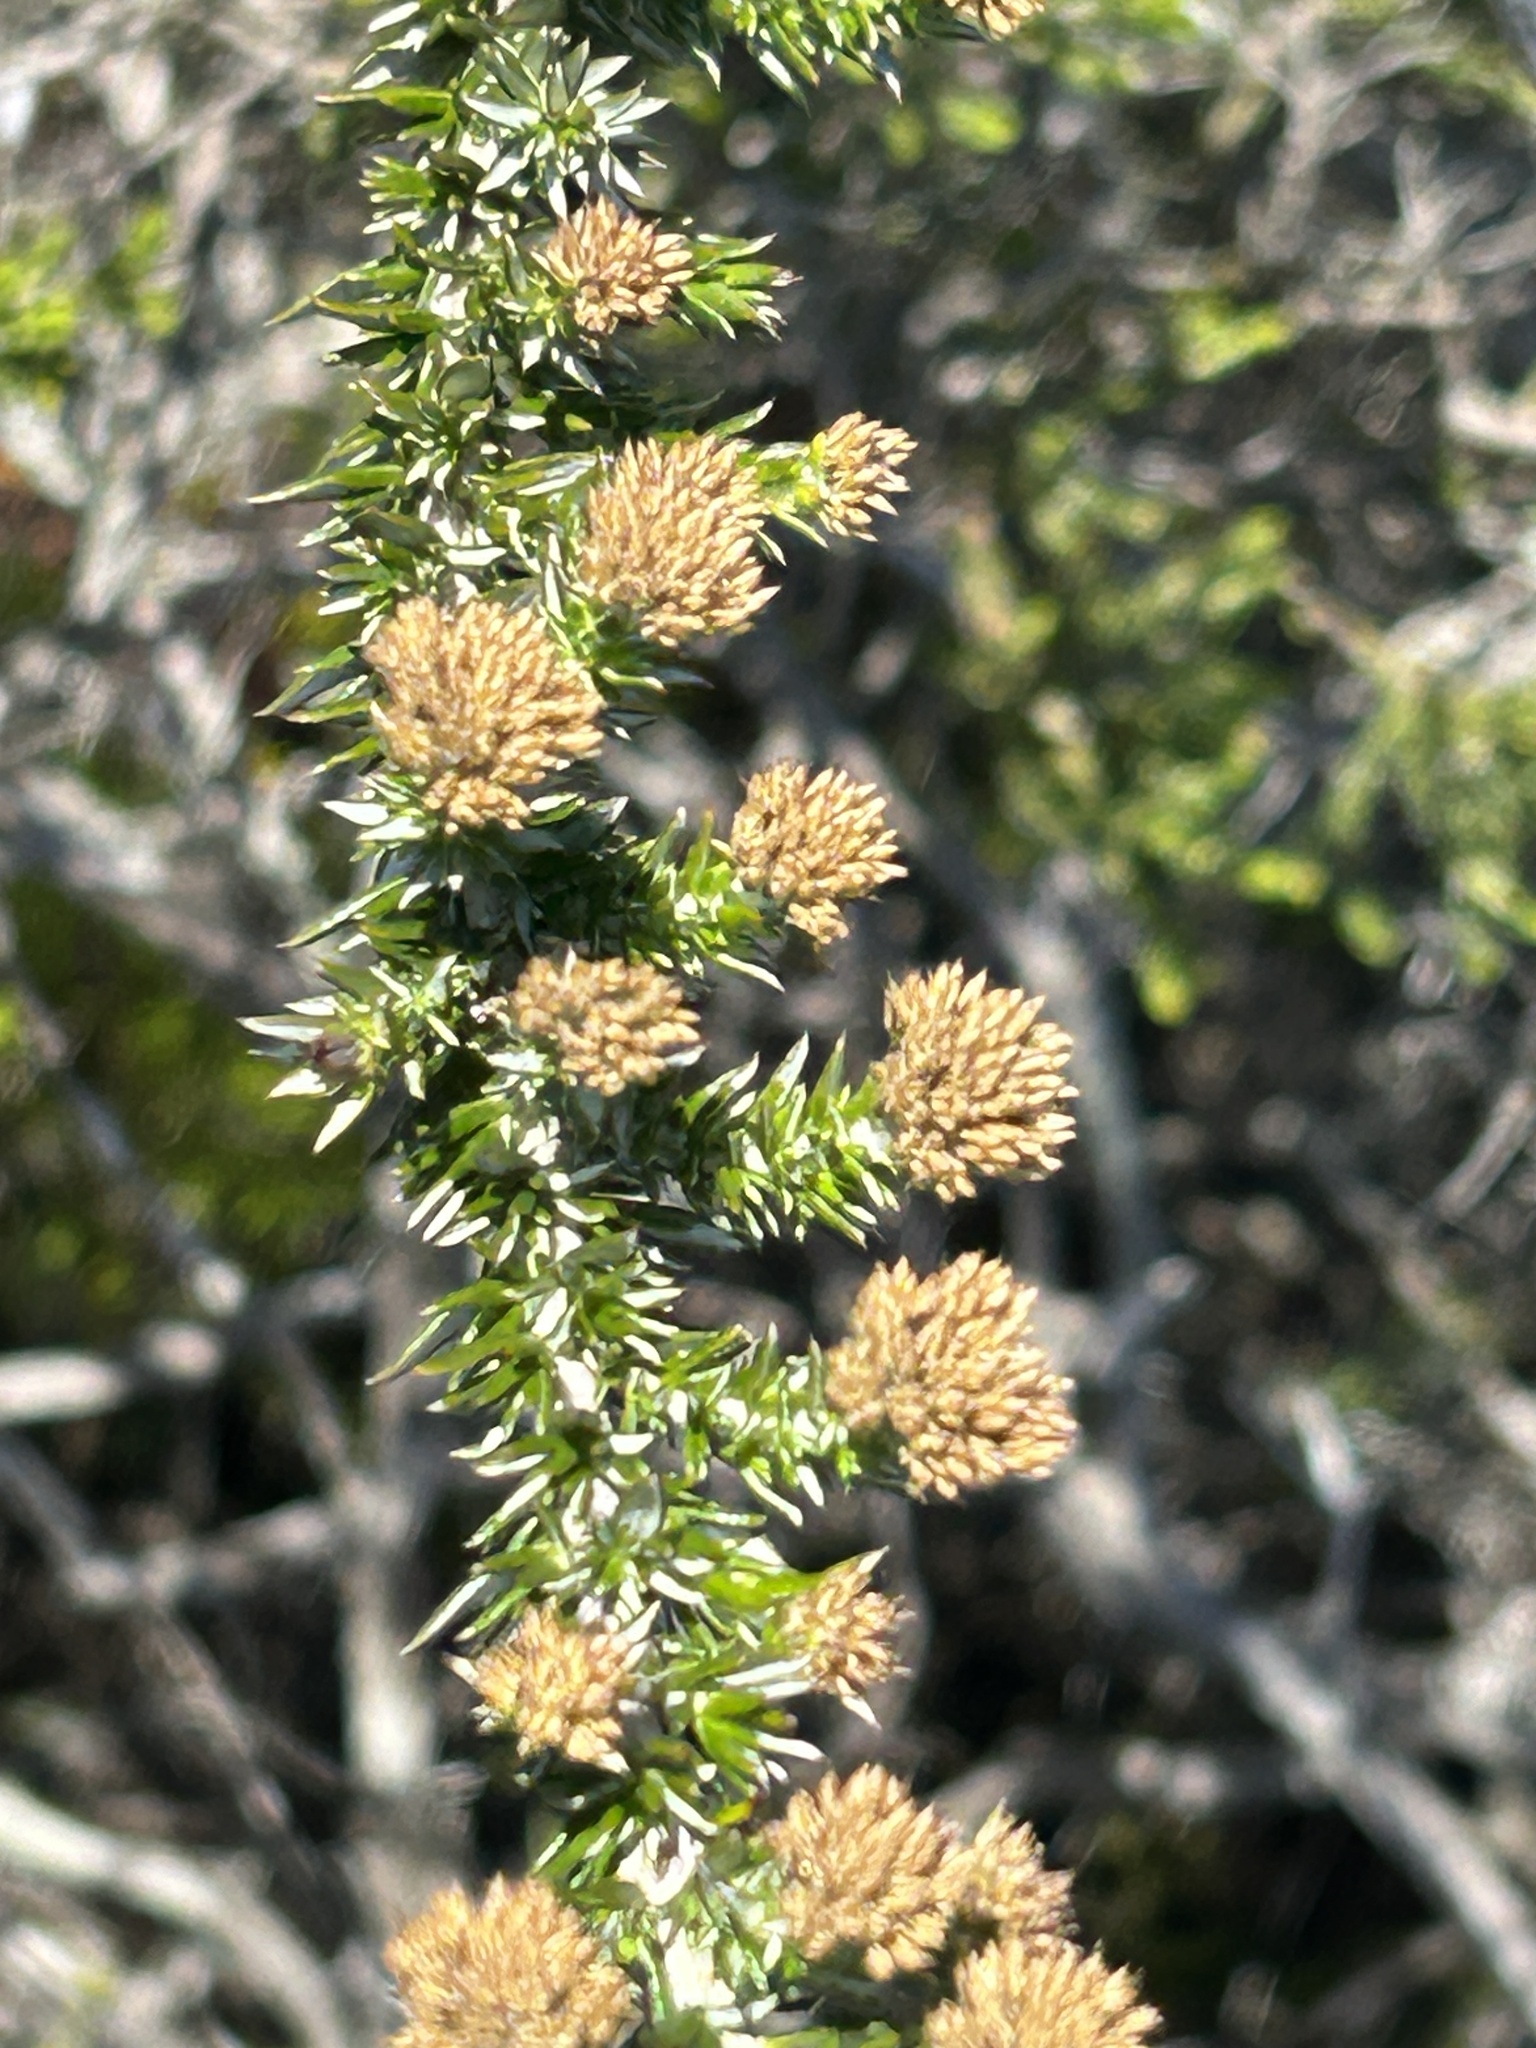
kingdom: Plantae
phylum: Tracheophyta
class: Magnoliopsida
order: Asterales
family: Asteraceae
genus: Metalasia
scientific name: Metalasia pungens
